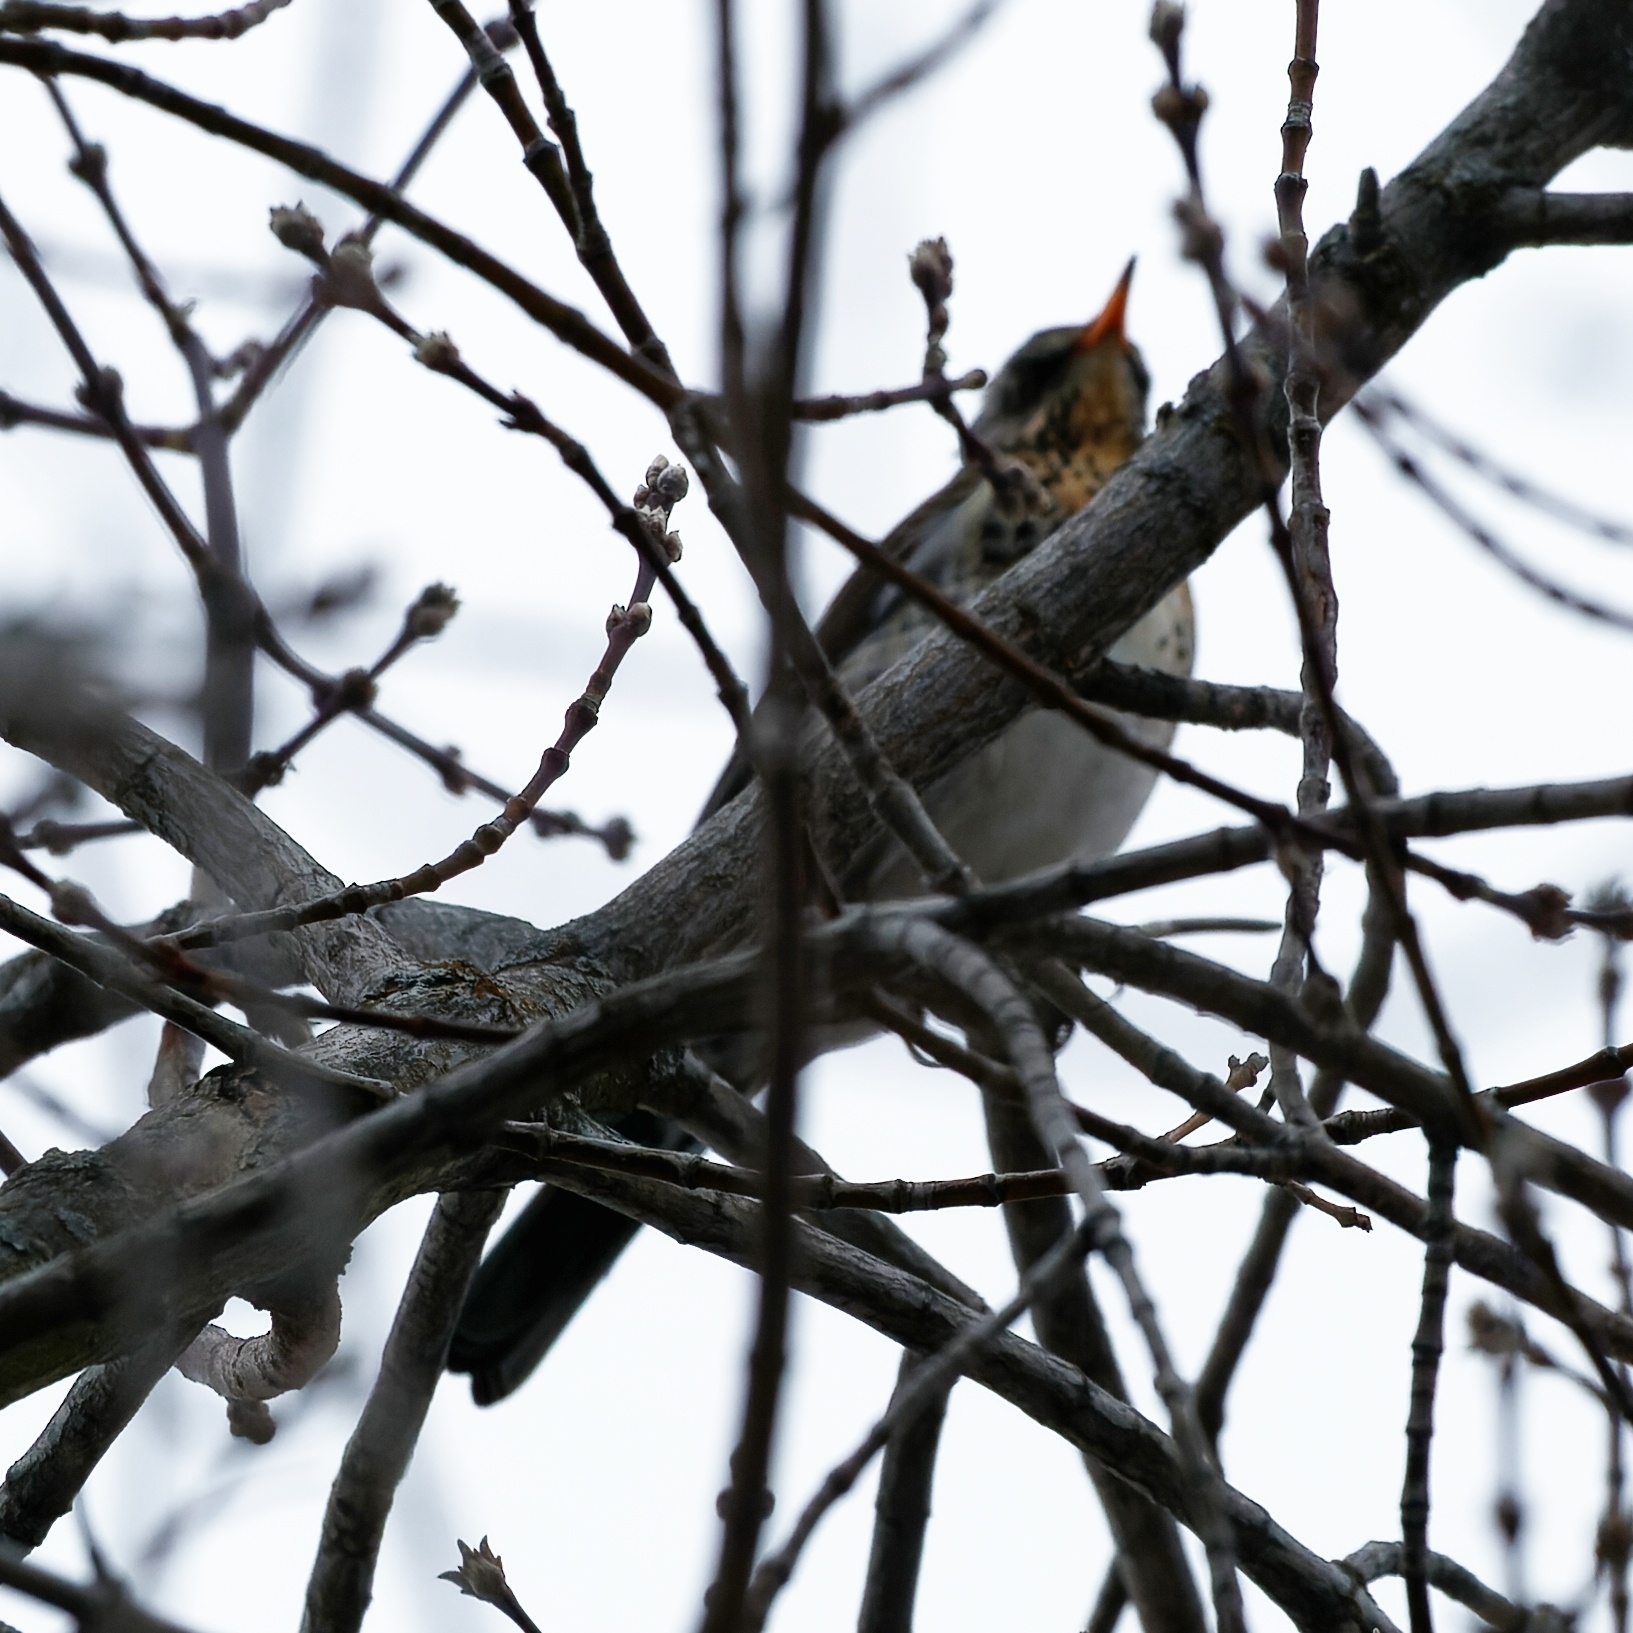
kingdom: Animalia
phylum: Chordata
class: Aves
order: Passeriformes
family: Turdidae
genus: Turdus
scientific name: Turdus pilaris
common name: Fieldfare
